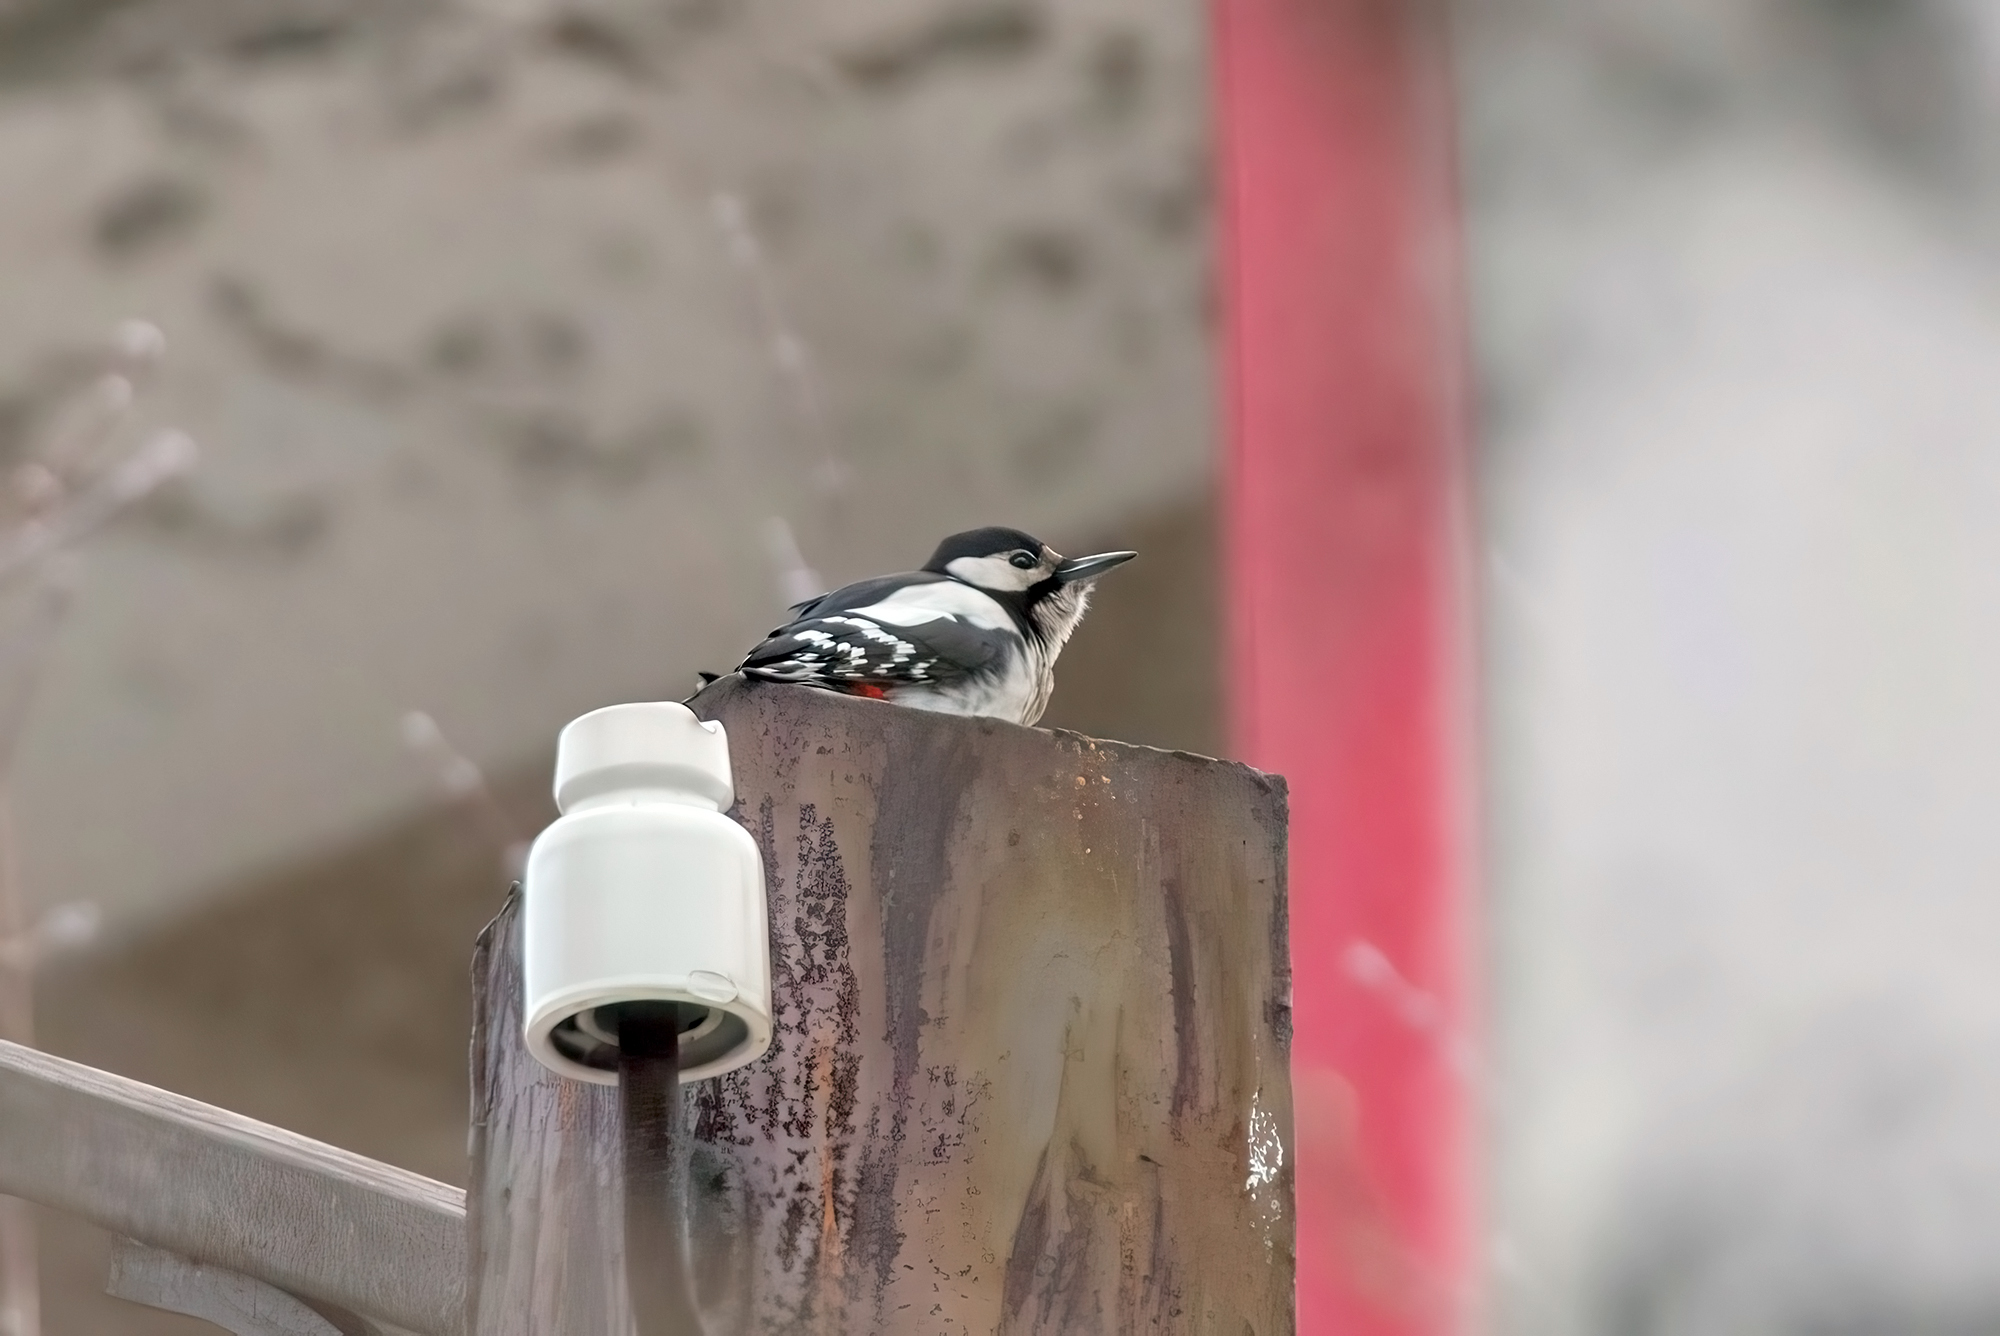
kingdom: Animalia
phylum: Chordata
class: Aves
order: Piciformes
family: Picidae
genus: Dendrocopos
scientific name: Dendrocopos major
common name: Great spotted woodpecker
